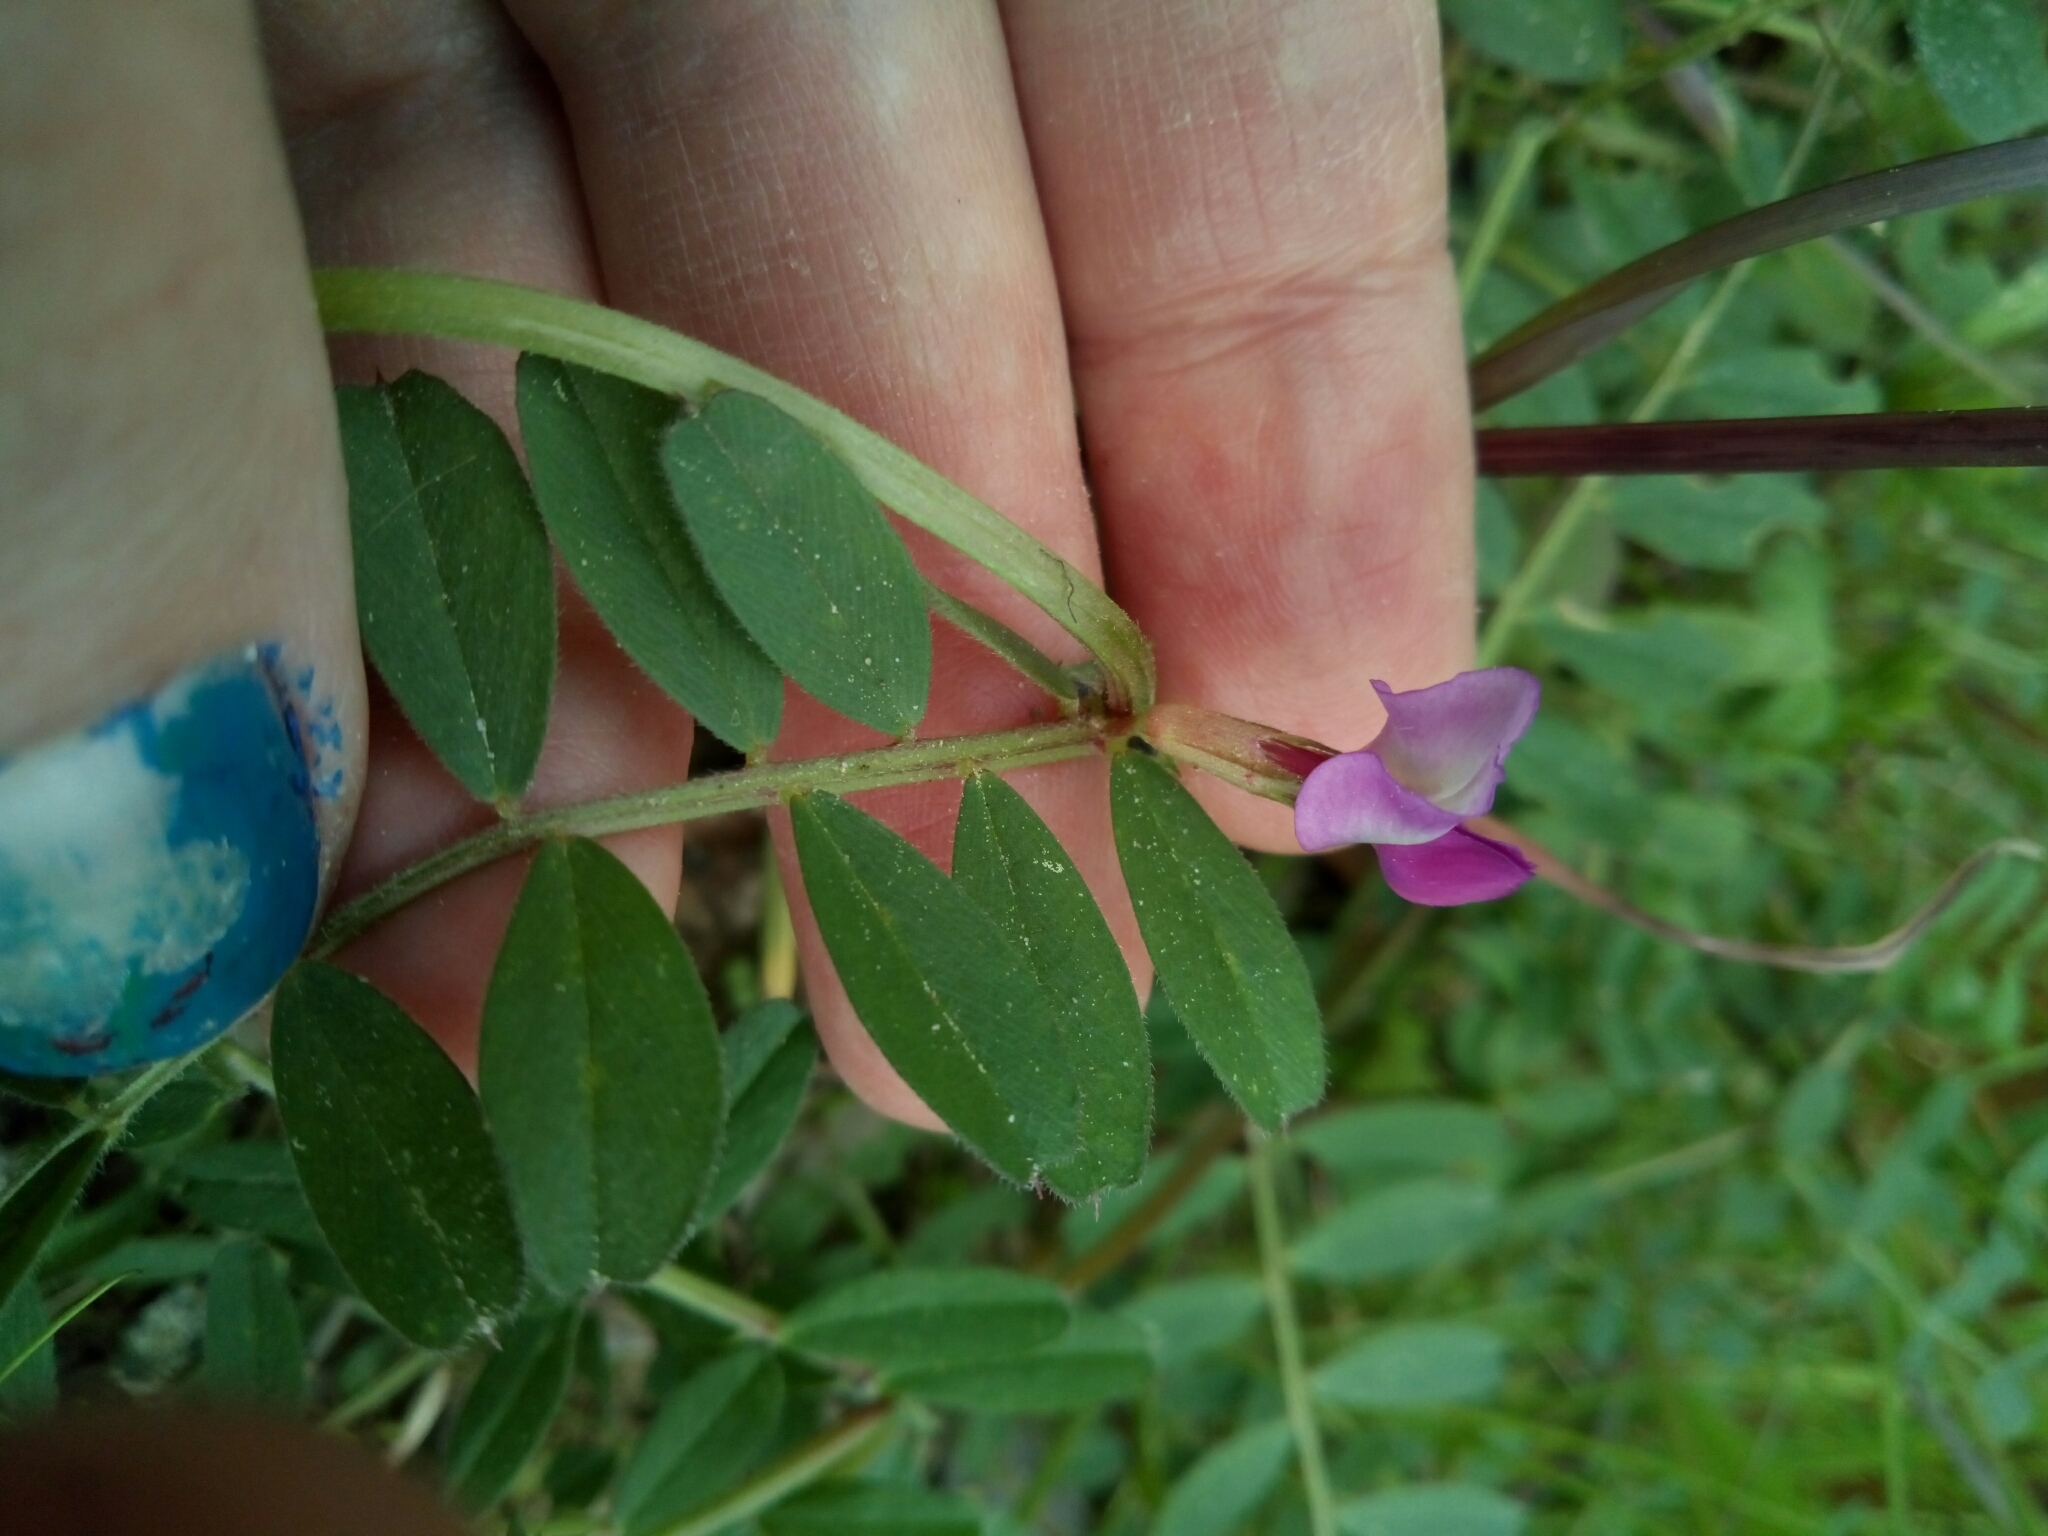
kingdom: Plantae
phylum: Tracheophyta
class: Magnoliopsida
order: Fabales
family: Fabaceae
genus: Vicia
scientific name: Vicia sativa
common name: Garden vetch
